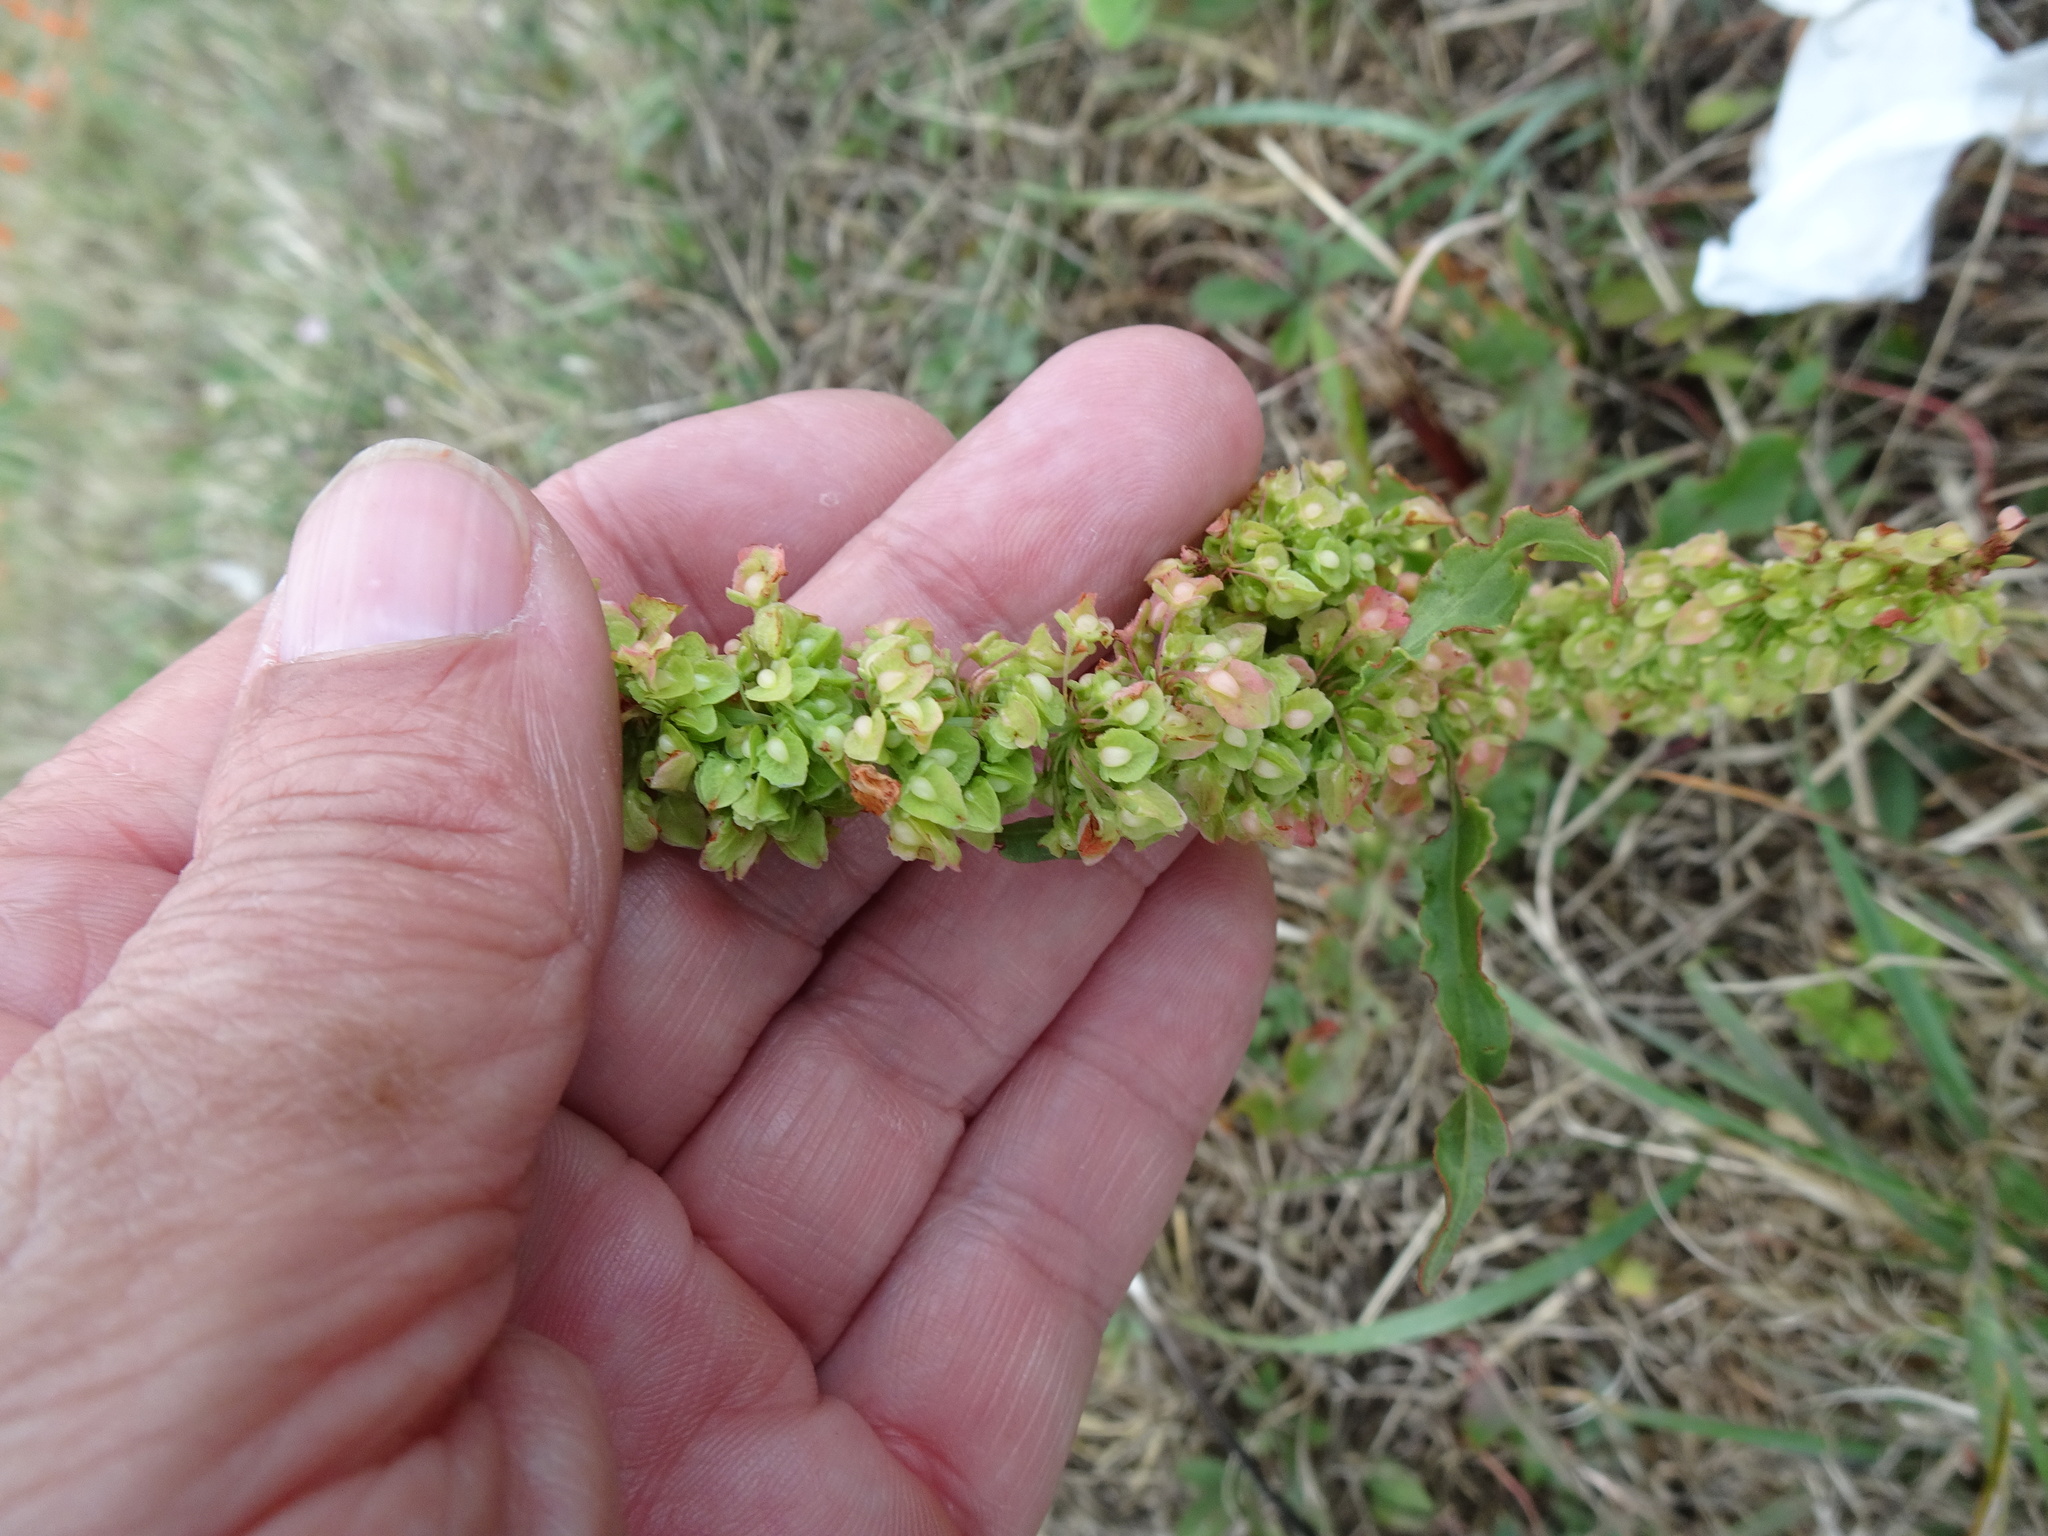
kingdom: Plantae
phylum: Tracheophyta
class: Magnoliopsida
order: Caryophyllales
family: Polygonaceae
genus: Rumex
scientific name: Rumex crispus
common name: Curled dock
